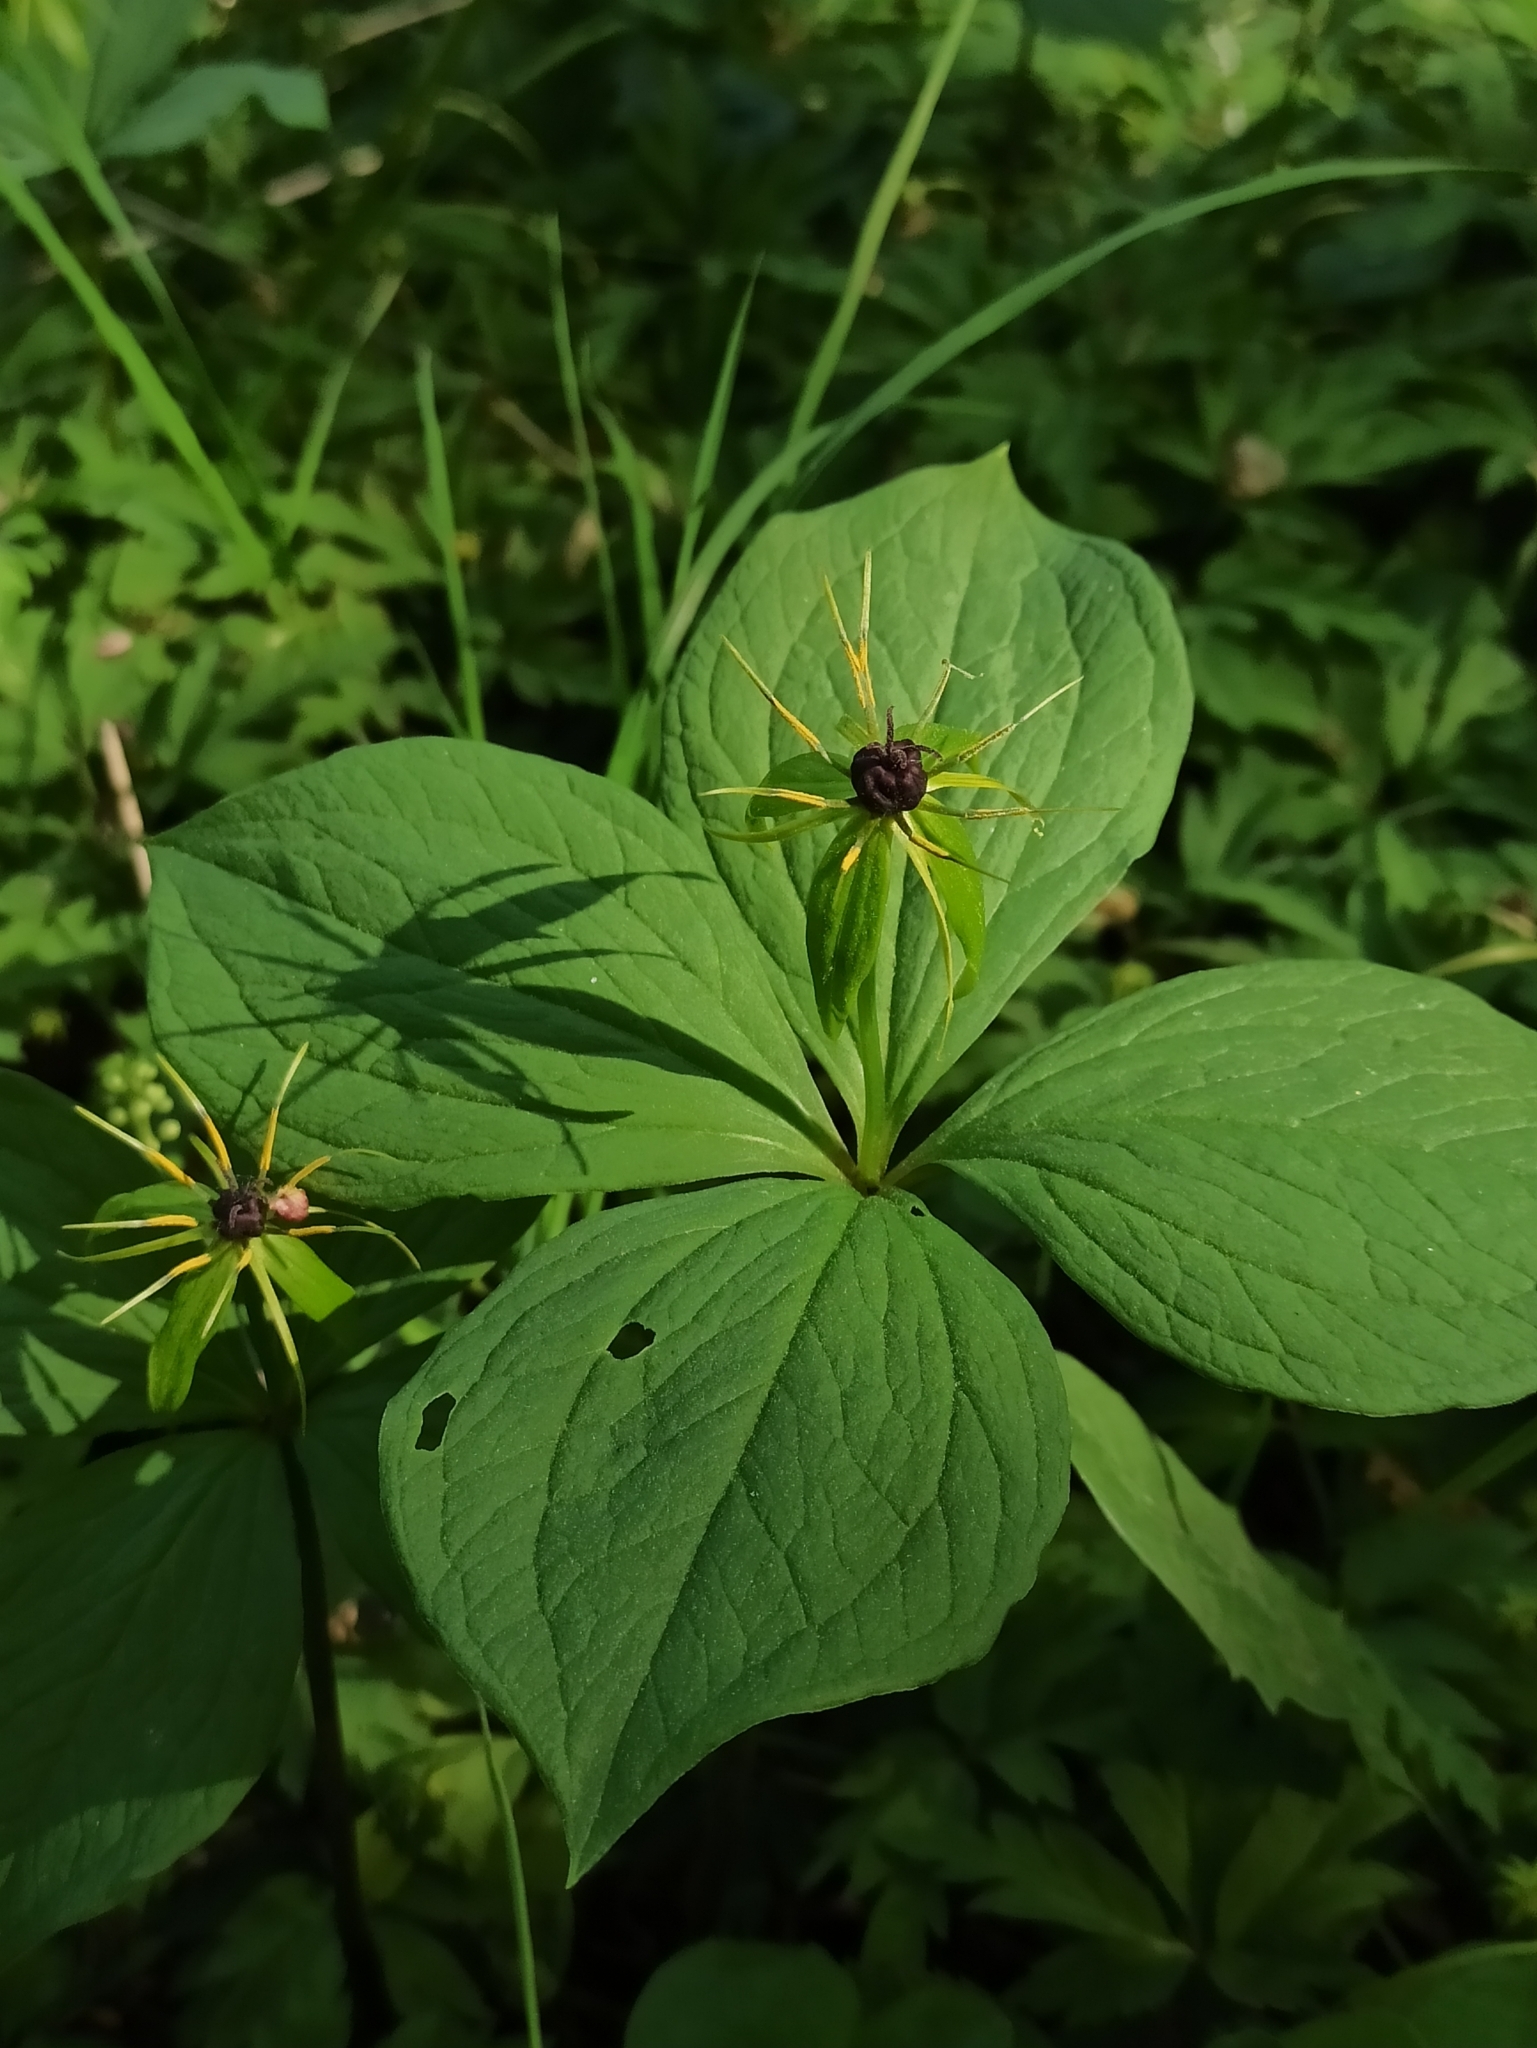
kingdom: Plantae
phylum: Tracheophyta
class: Liliopsida
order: Liliales
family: Melanthiaceae
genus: Paris
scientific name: Paris quadrifolia
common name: Herb-paris
